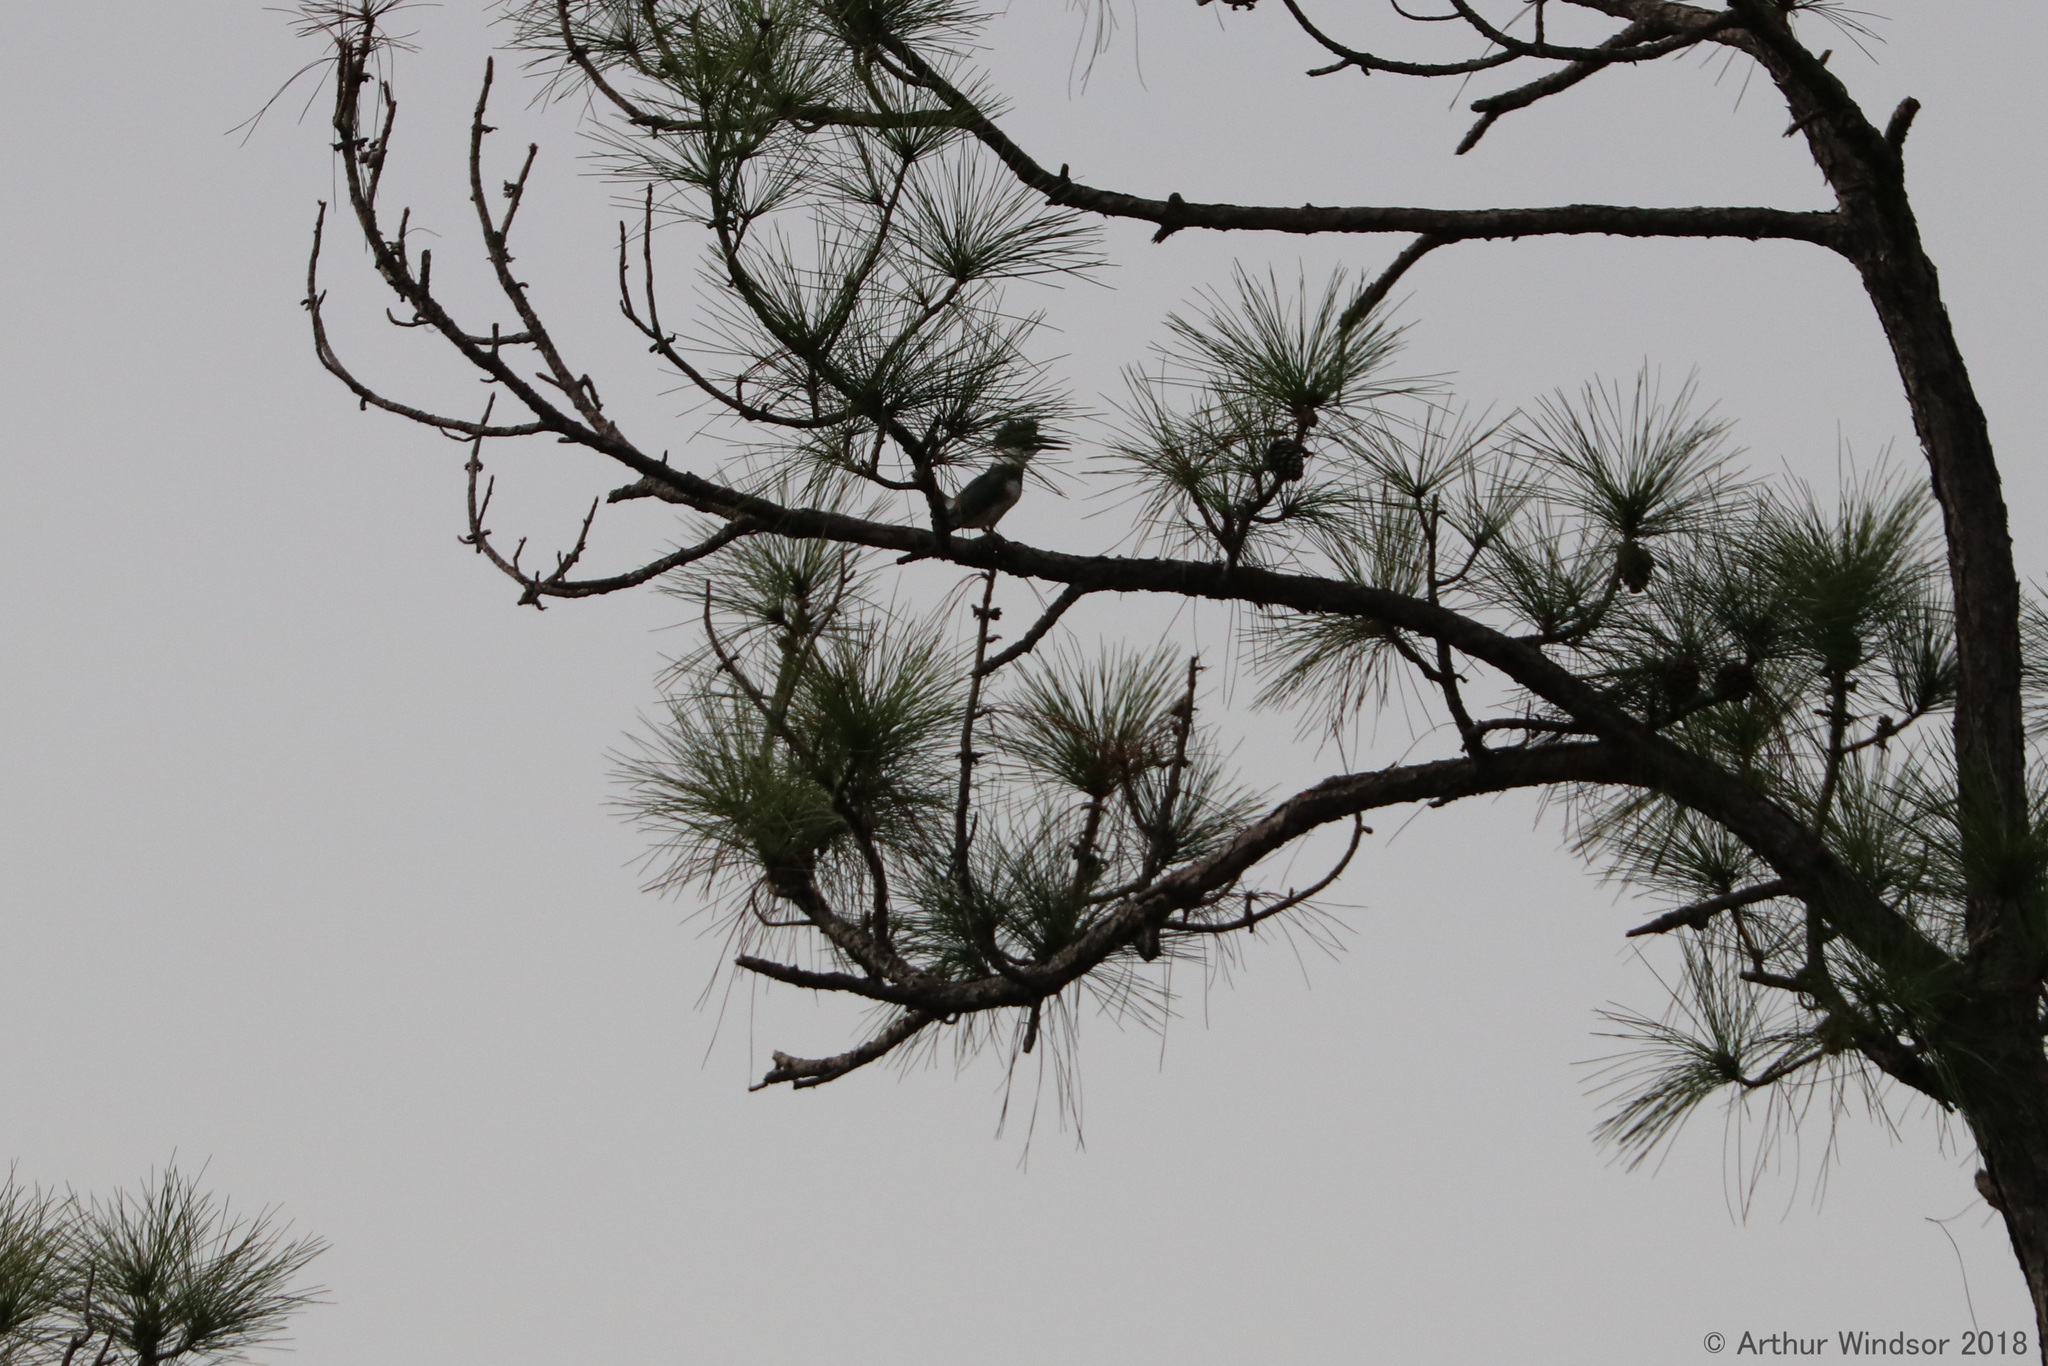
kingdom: Animalia
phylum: Chordata
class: Aves
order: Coraciiformes
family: Alcedinidae
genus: Megaceryle
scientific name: Megaceryle alcyon
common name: Belted kingfisher
